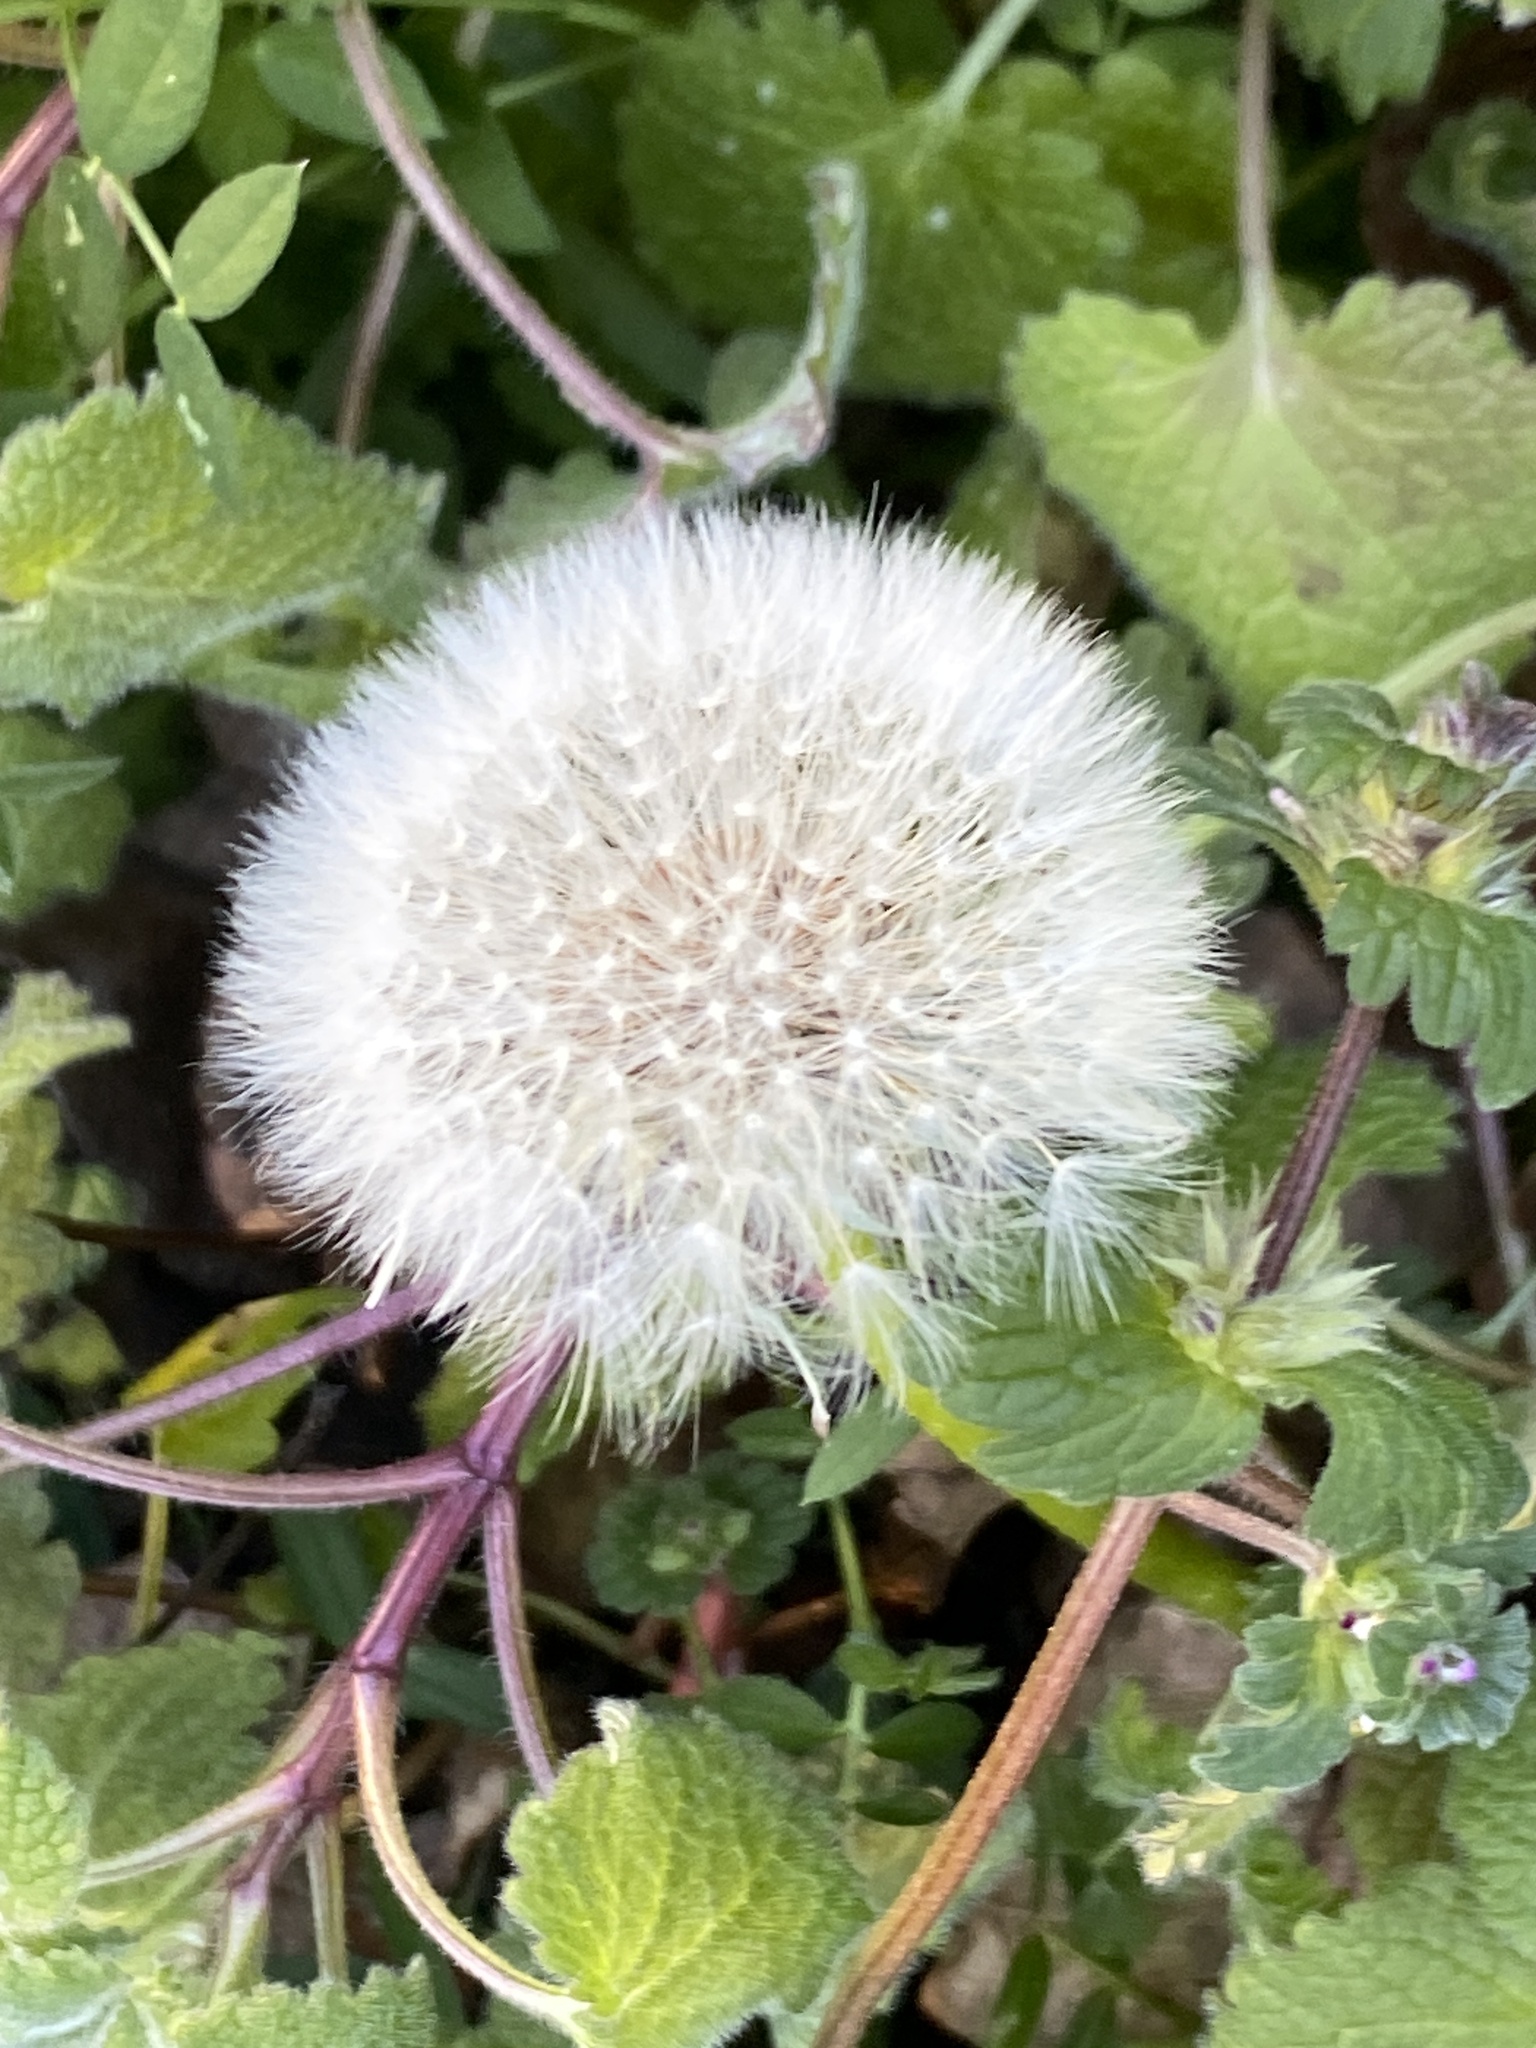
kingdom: Plantae
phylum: Tracheophyta
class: Magnoliopsida
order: Asterales
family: Asteraceae
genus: Taraxacum
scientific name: Taraxacum officinale
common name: Common dandelion
